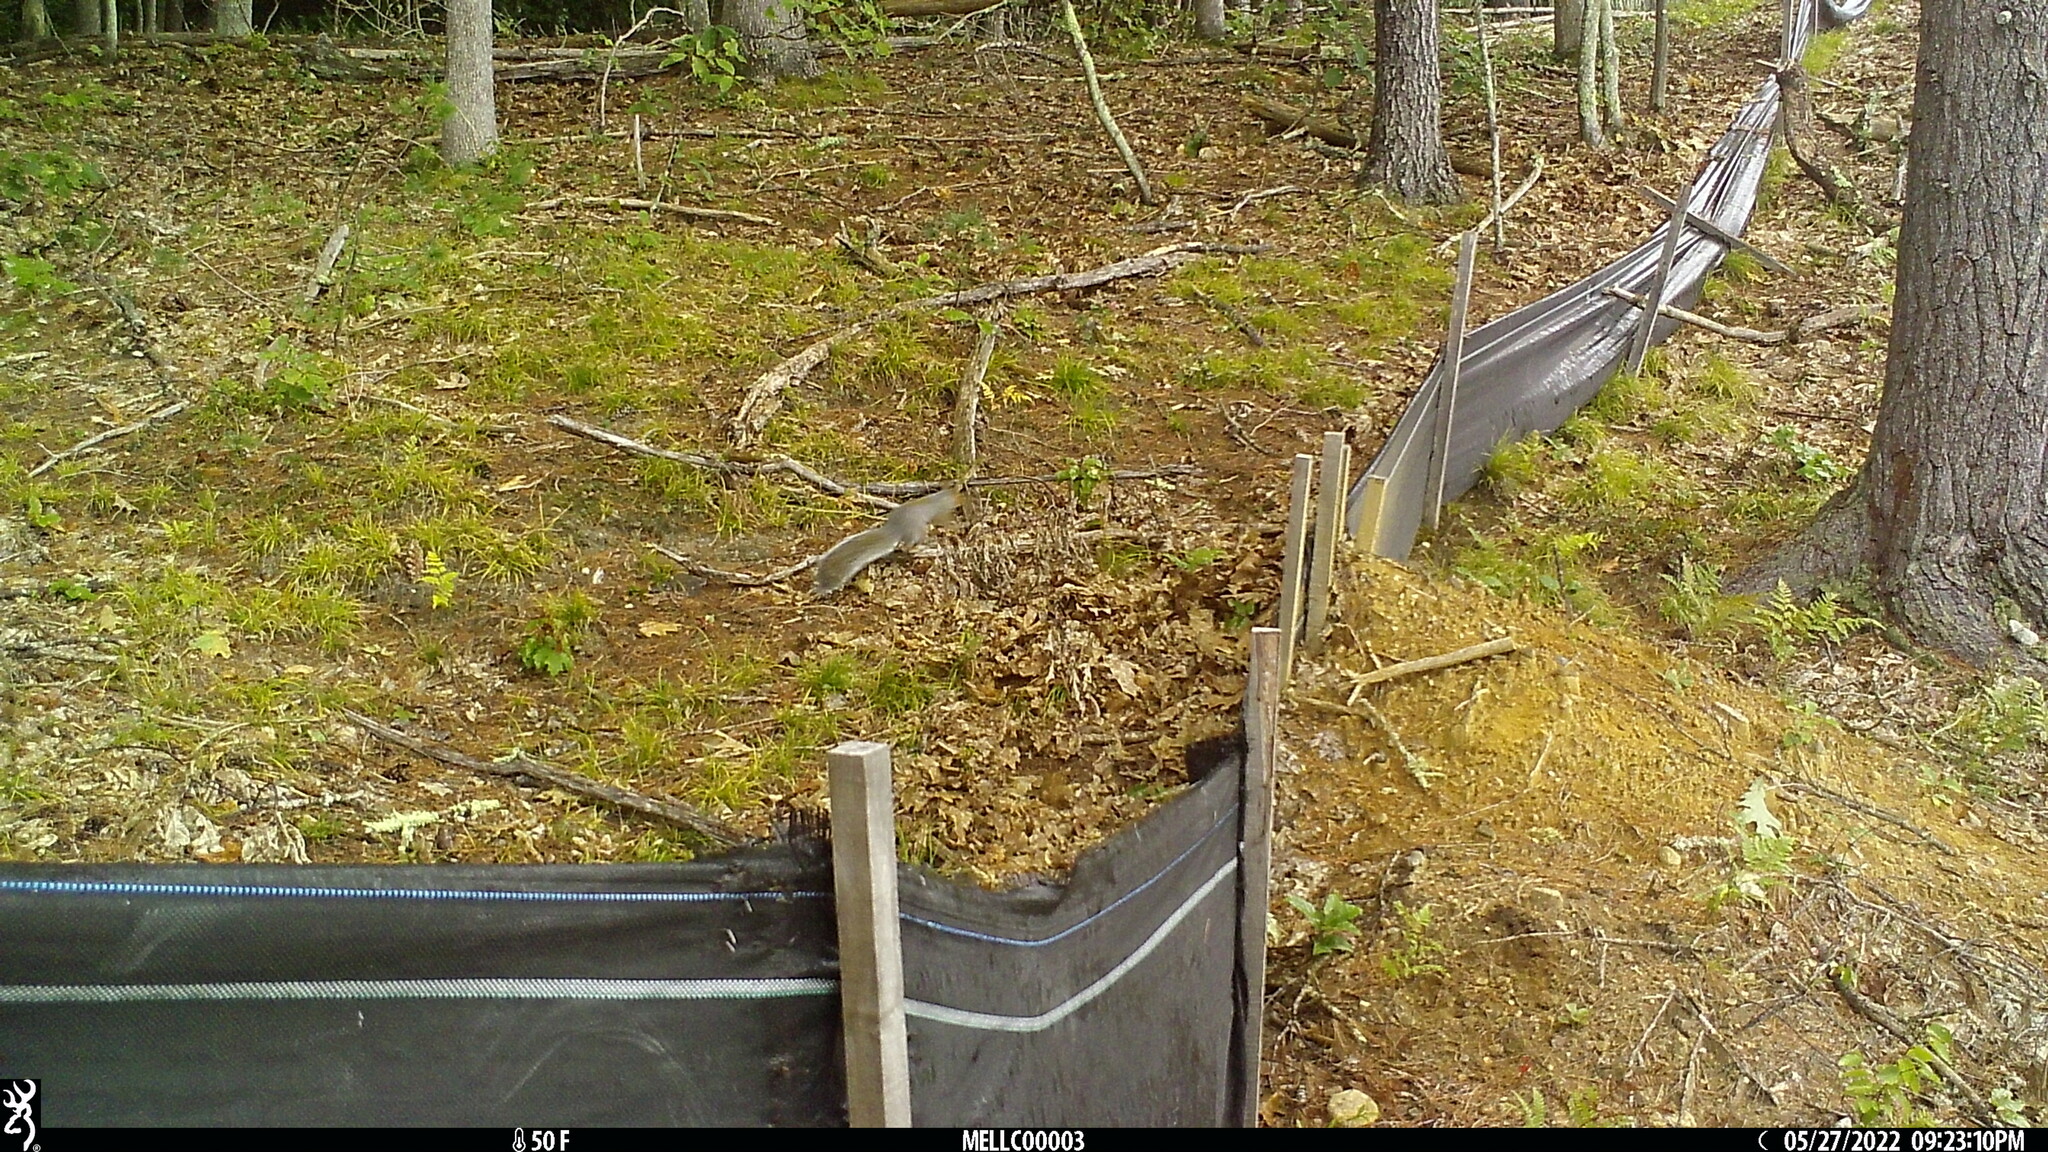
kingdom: Animalia
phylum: Chordata
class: Mammalia
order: Rodentia
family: Sciuridae
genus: Sciurus
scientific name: Sciurus carolinensis
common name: Eastern gray squirrel
